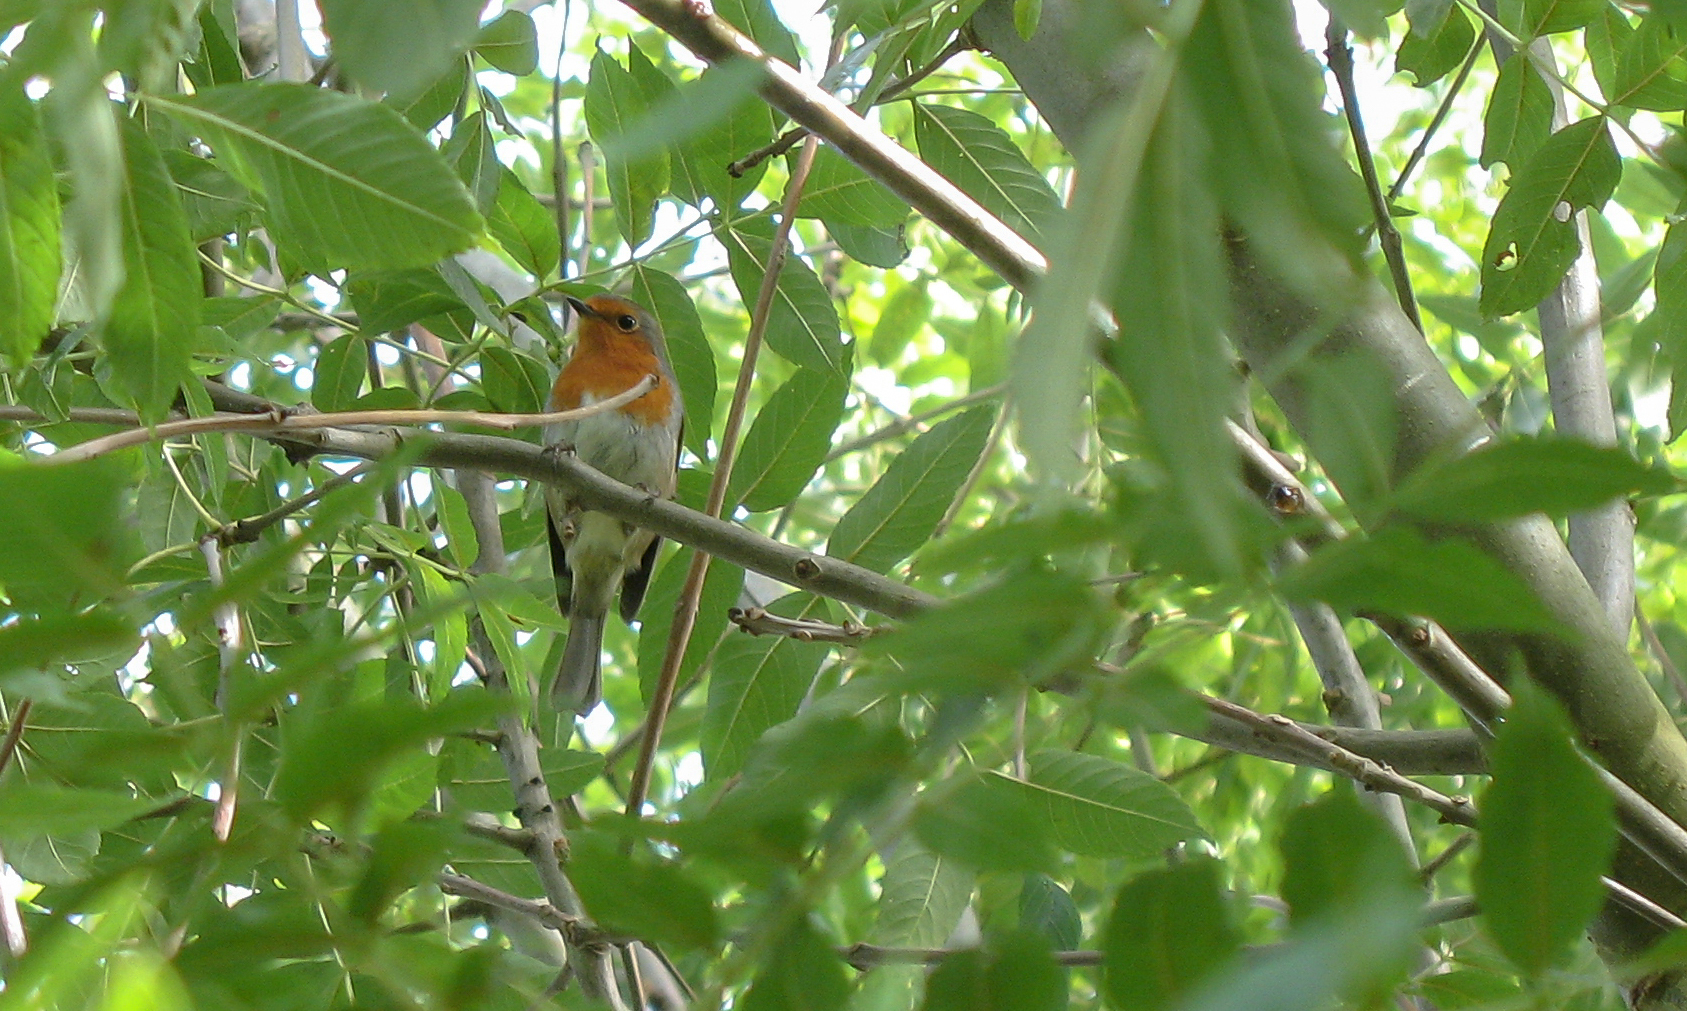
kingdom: Animalia
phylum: Chordata
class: Aves
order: Passeriformes
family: Muscicapidae
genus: Erithacus
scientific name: Erithacus rubecula
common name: European robin
